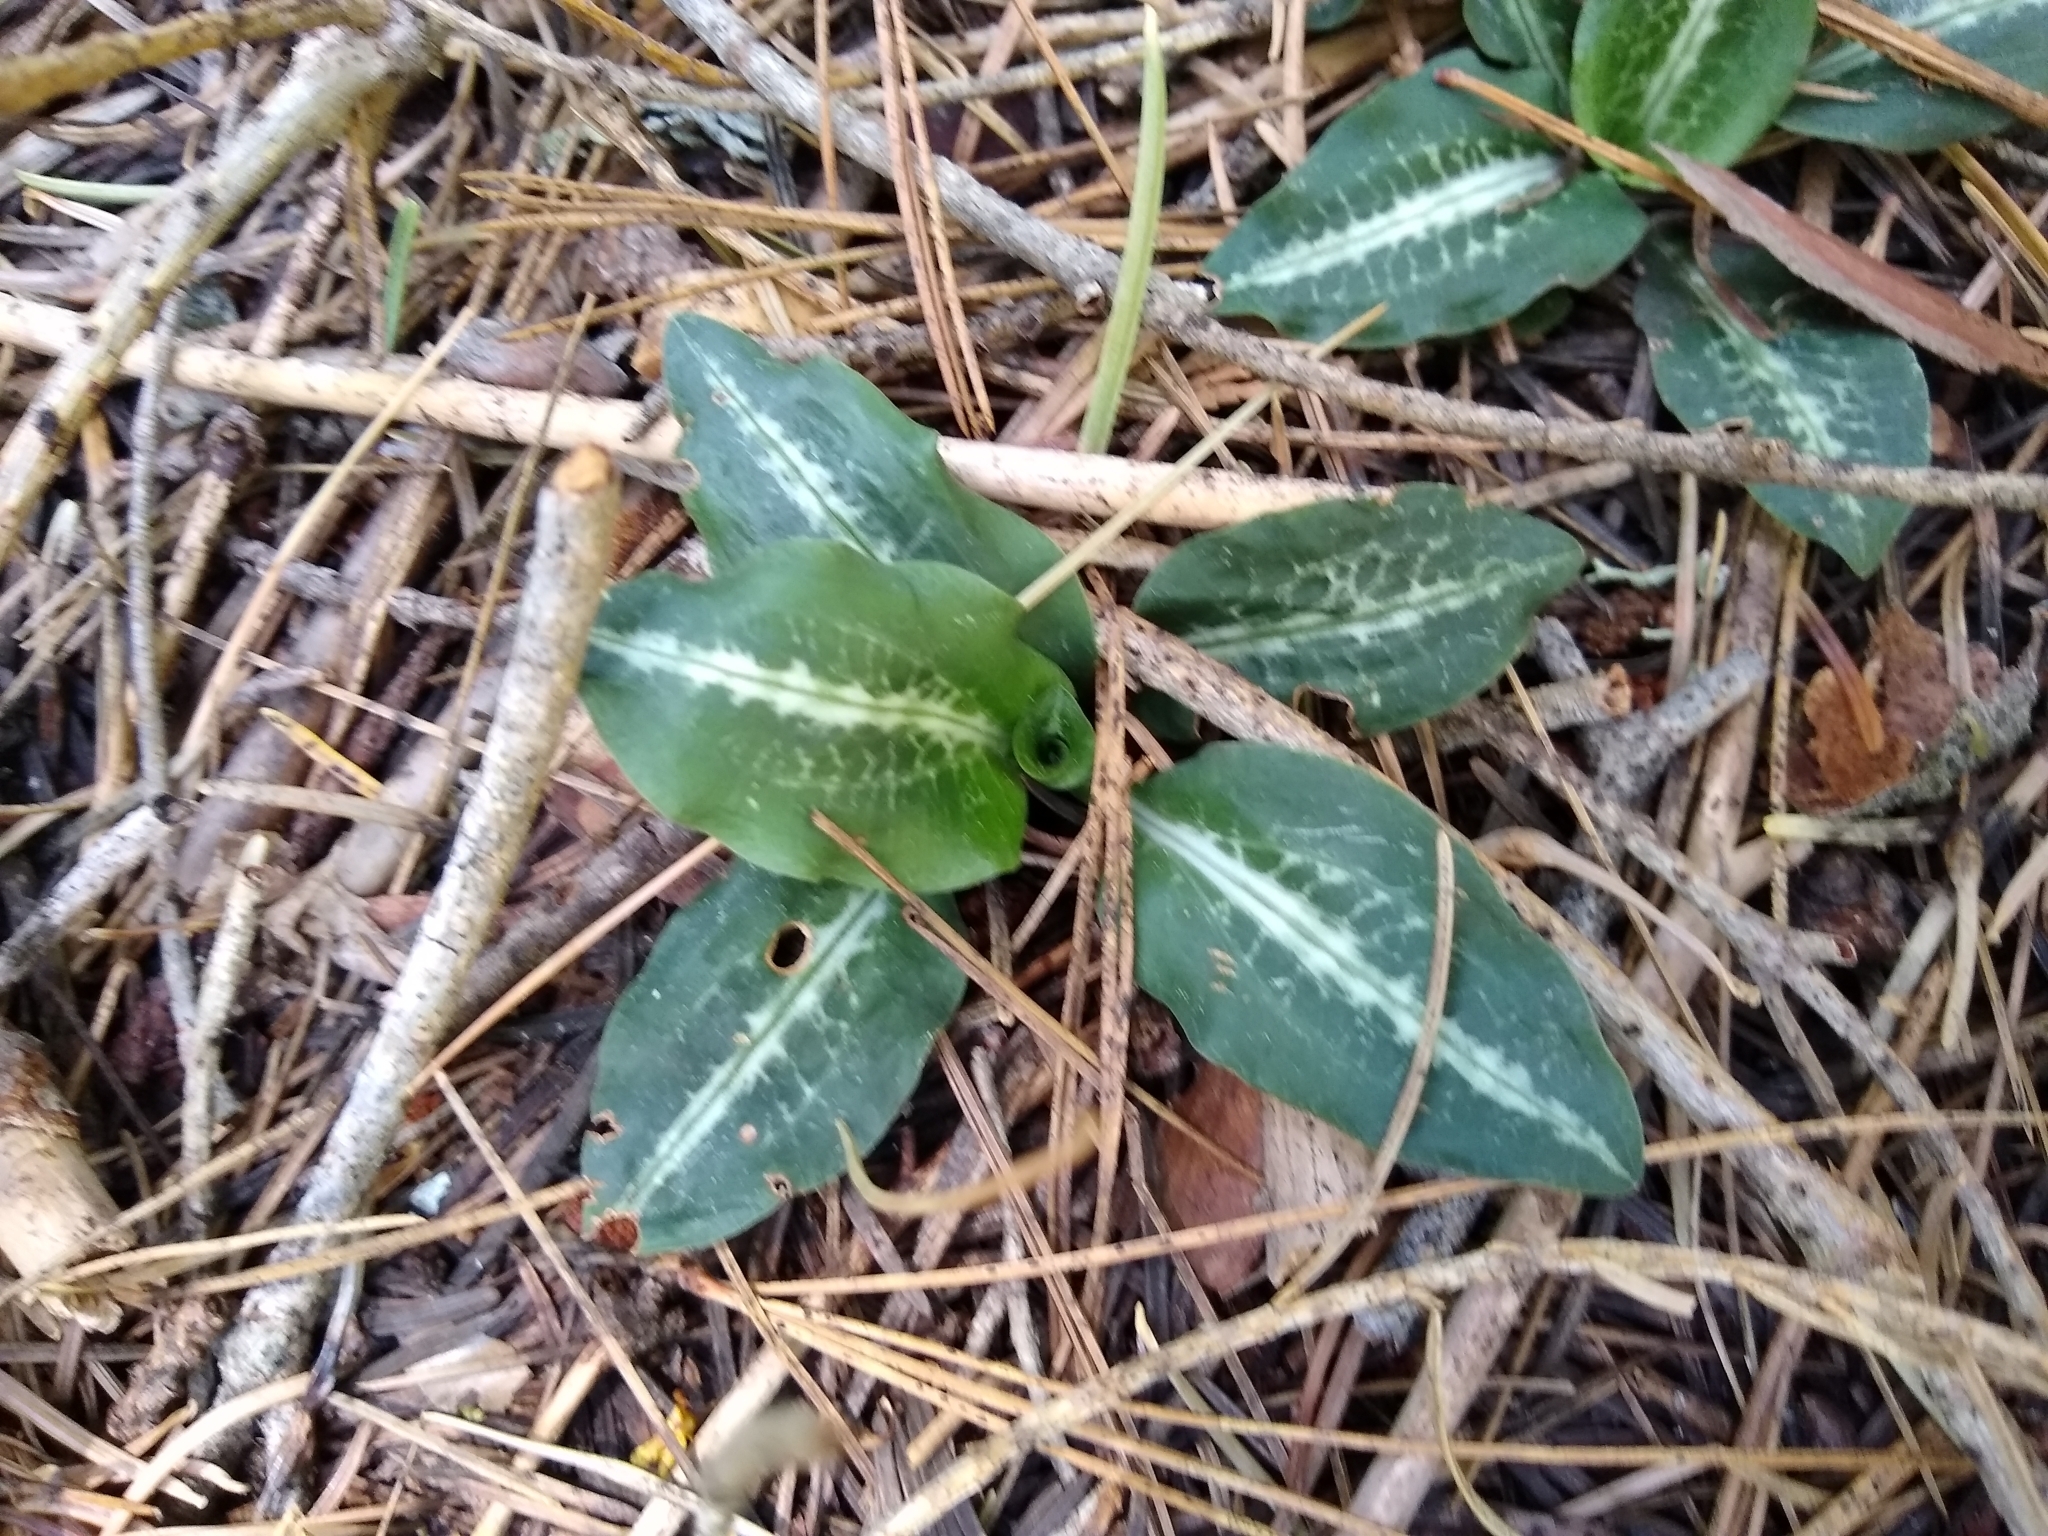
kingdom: Plantae
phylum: Tracheophyta
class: Liliopsida
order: Asparagales
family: Orchidaceae
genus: Goodyera
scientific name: Goodyera oblongifolia
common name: Giant rattlesnake-plantain
